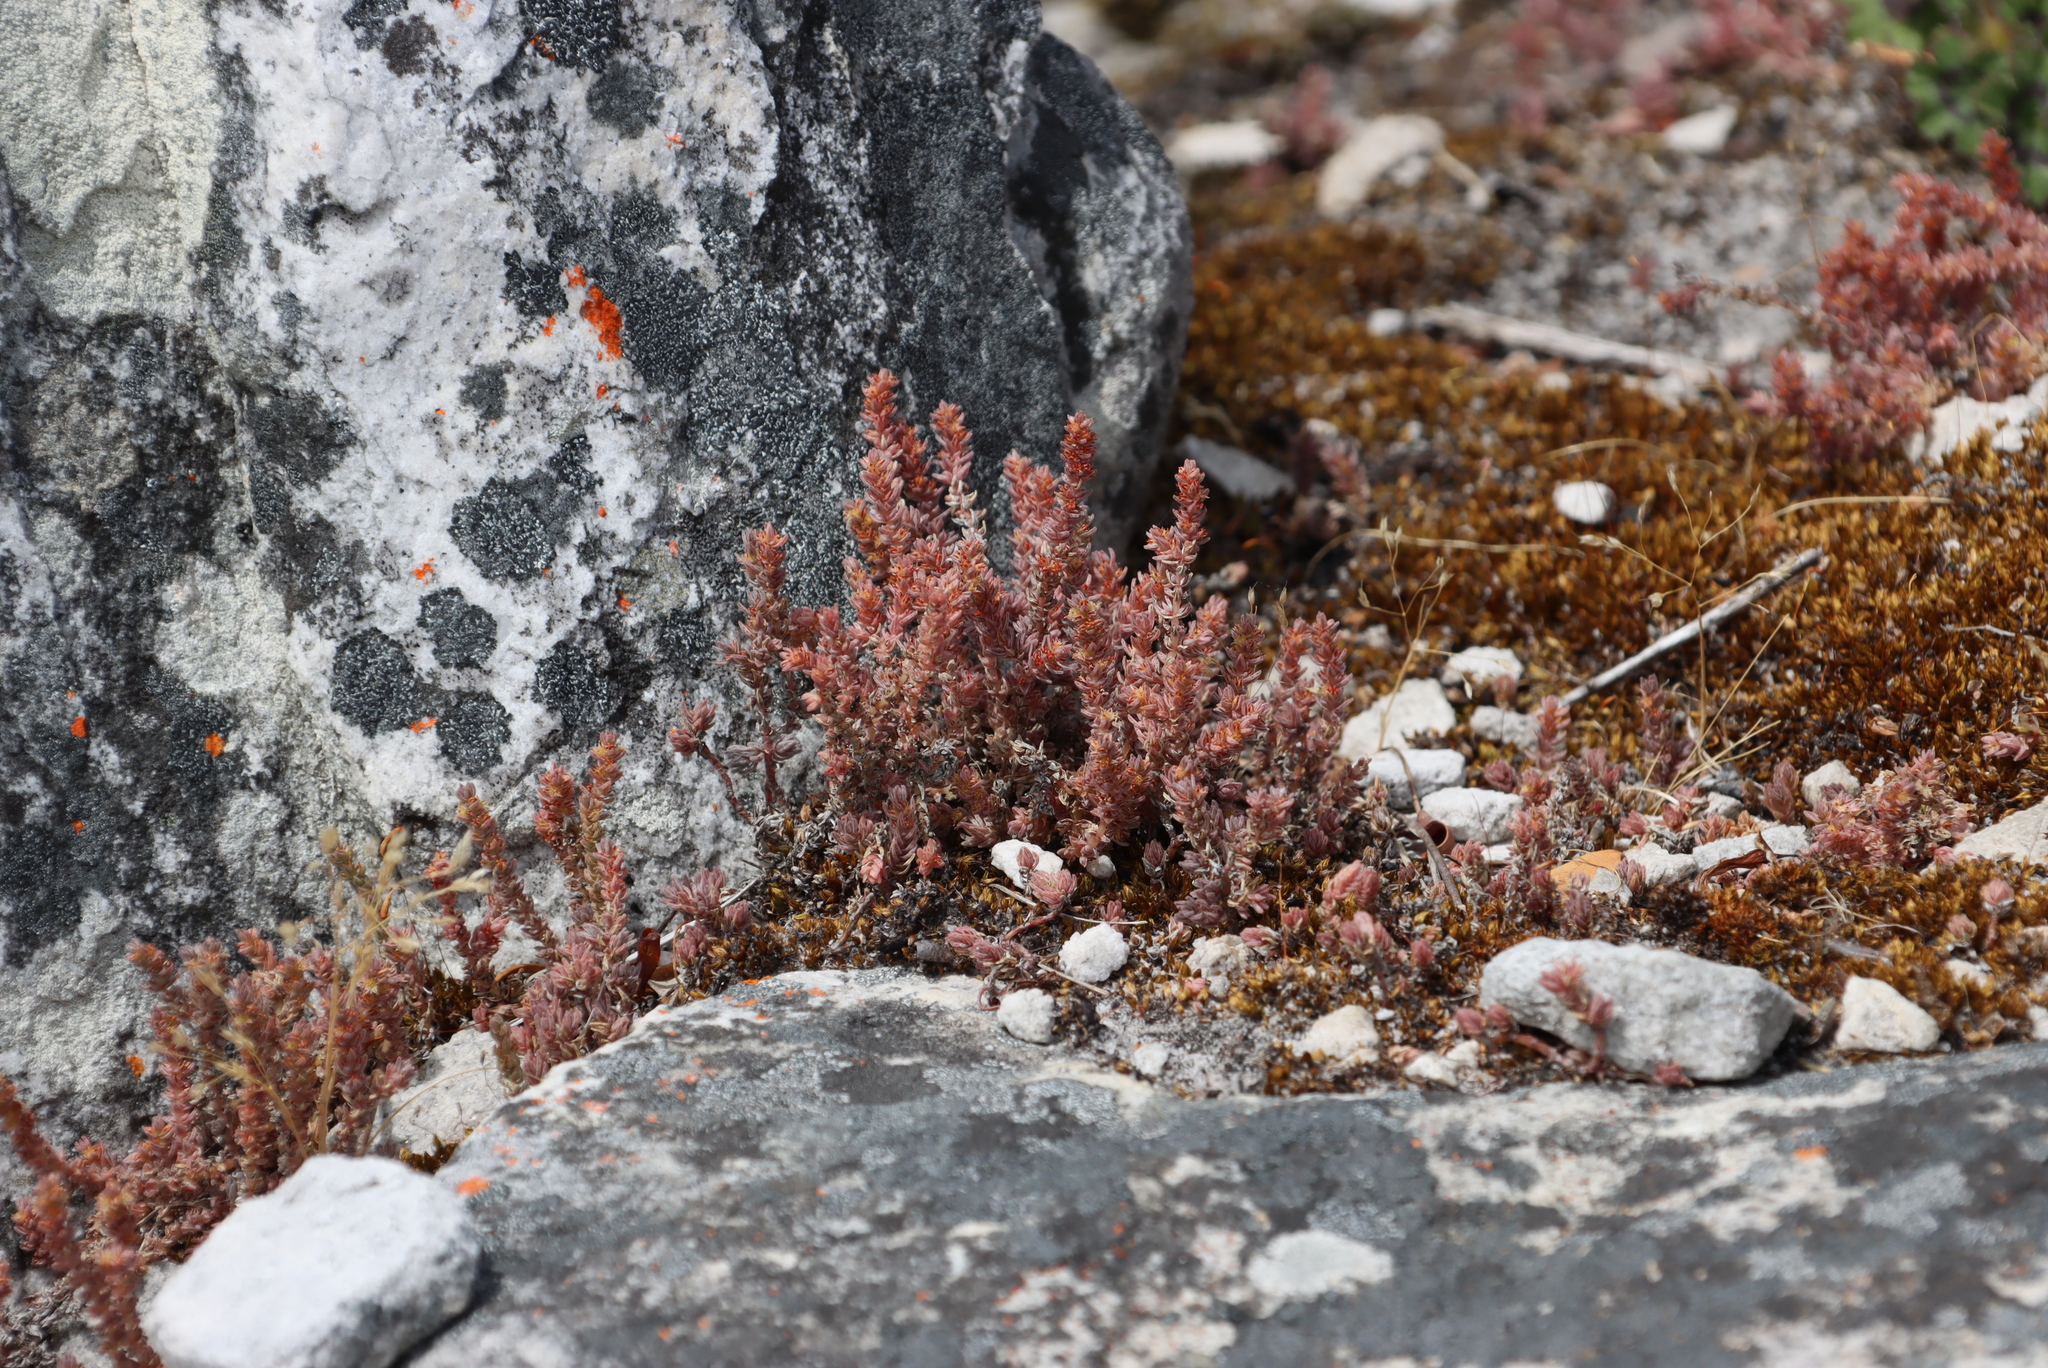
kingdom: Plantae
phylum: Tracheophyta
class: Magnoliopsida
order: Saxifragales
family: Crassulaceae
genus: Crassula
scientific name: Crassula lanceolata
